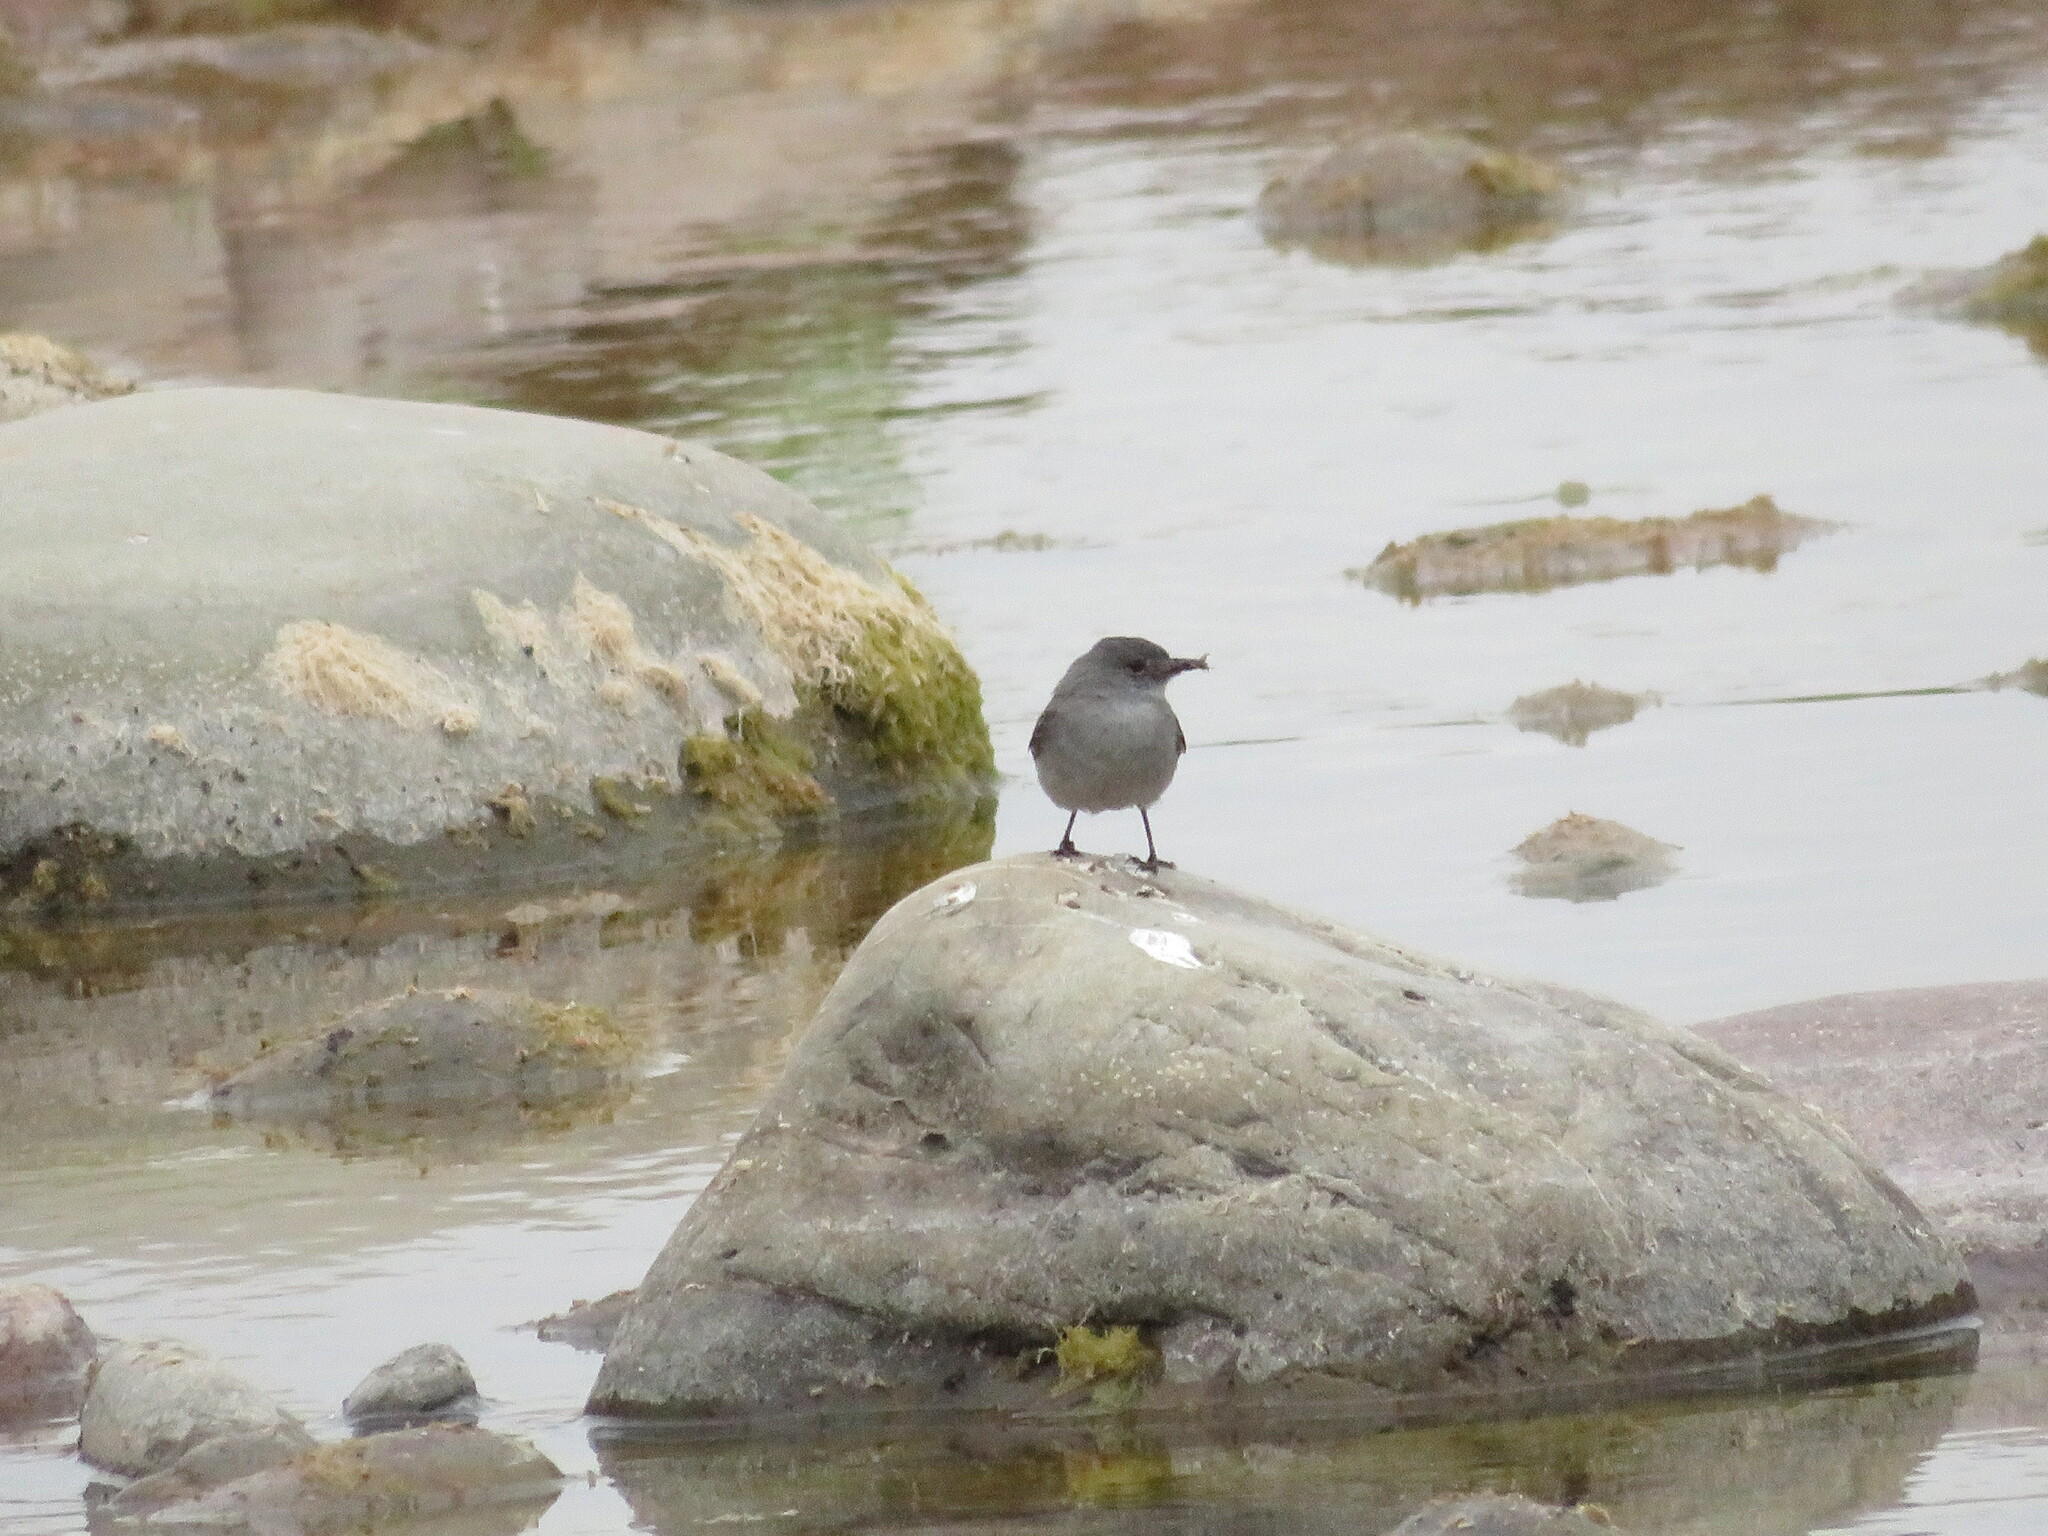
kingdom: Animalia
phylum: Chordata
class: Aves
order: Passeriformes
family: Tyrannidae
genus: Serpophaga
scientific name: Serpophaga nigricans
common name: Sooty tyrannulet
